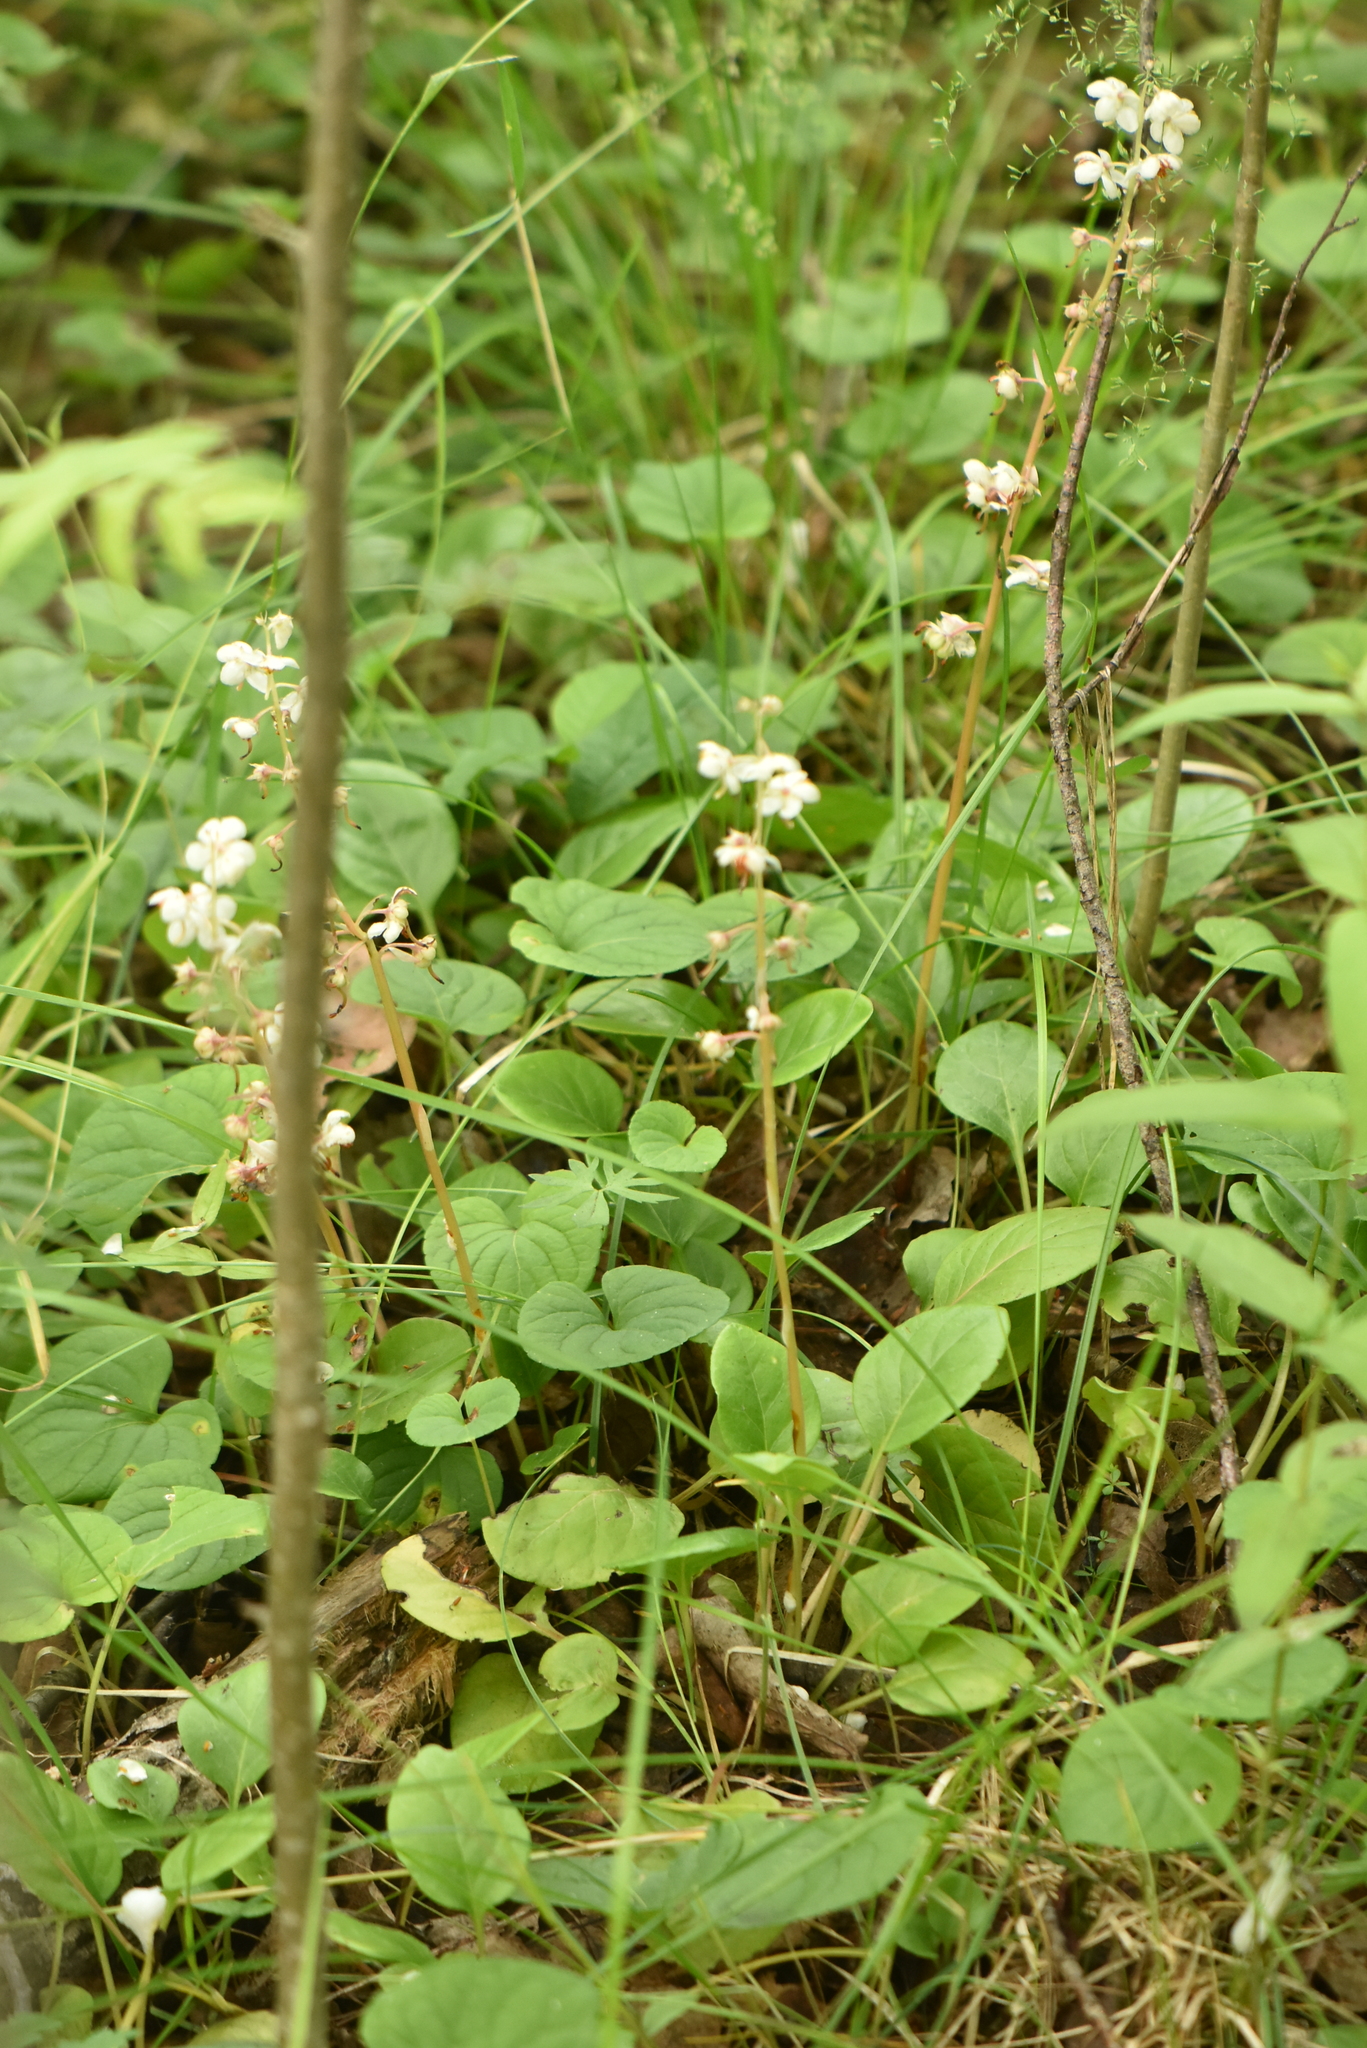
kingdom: Plantae
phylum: Tracheophyta
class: Magnoliopsida
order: Ericales
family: Ericaceae
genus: Pyrola
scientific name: Pyrola rotundifolia
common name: Round-leaved wintergreen
